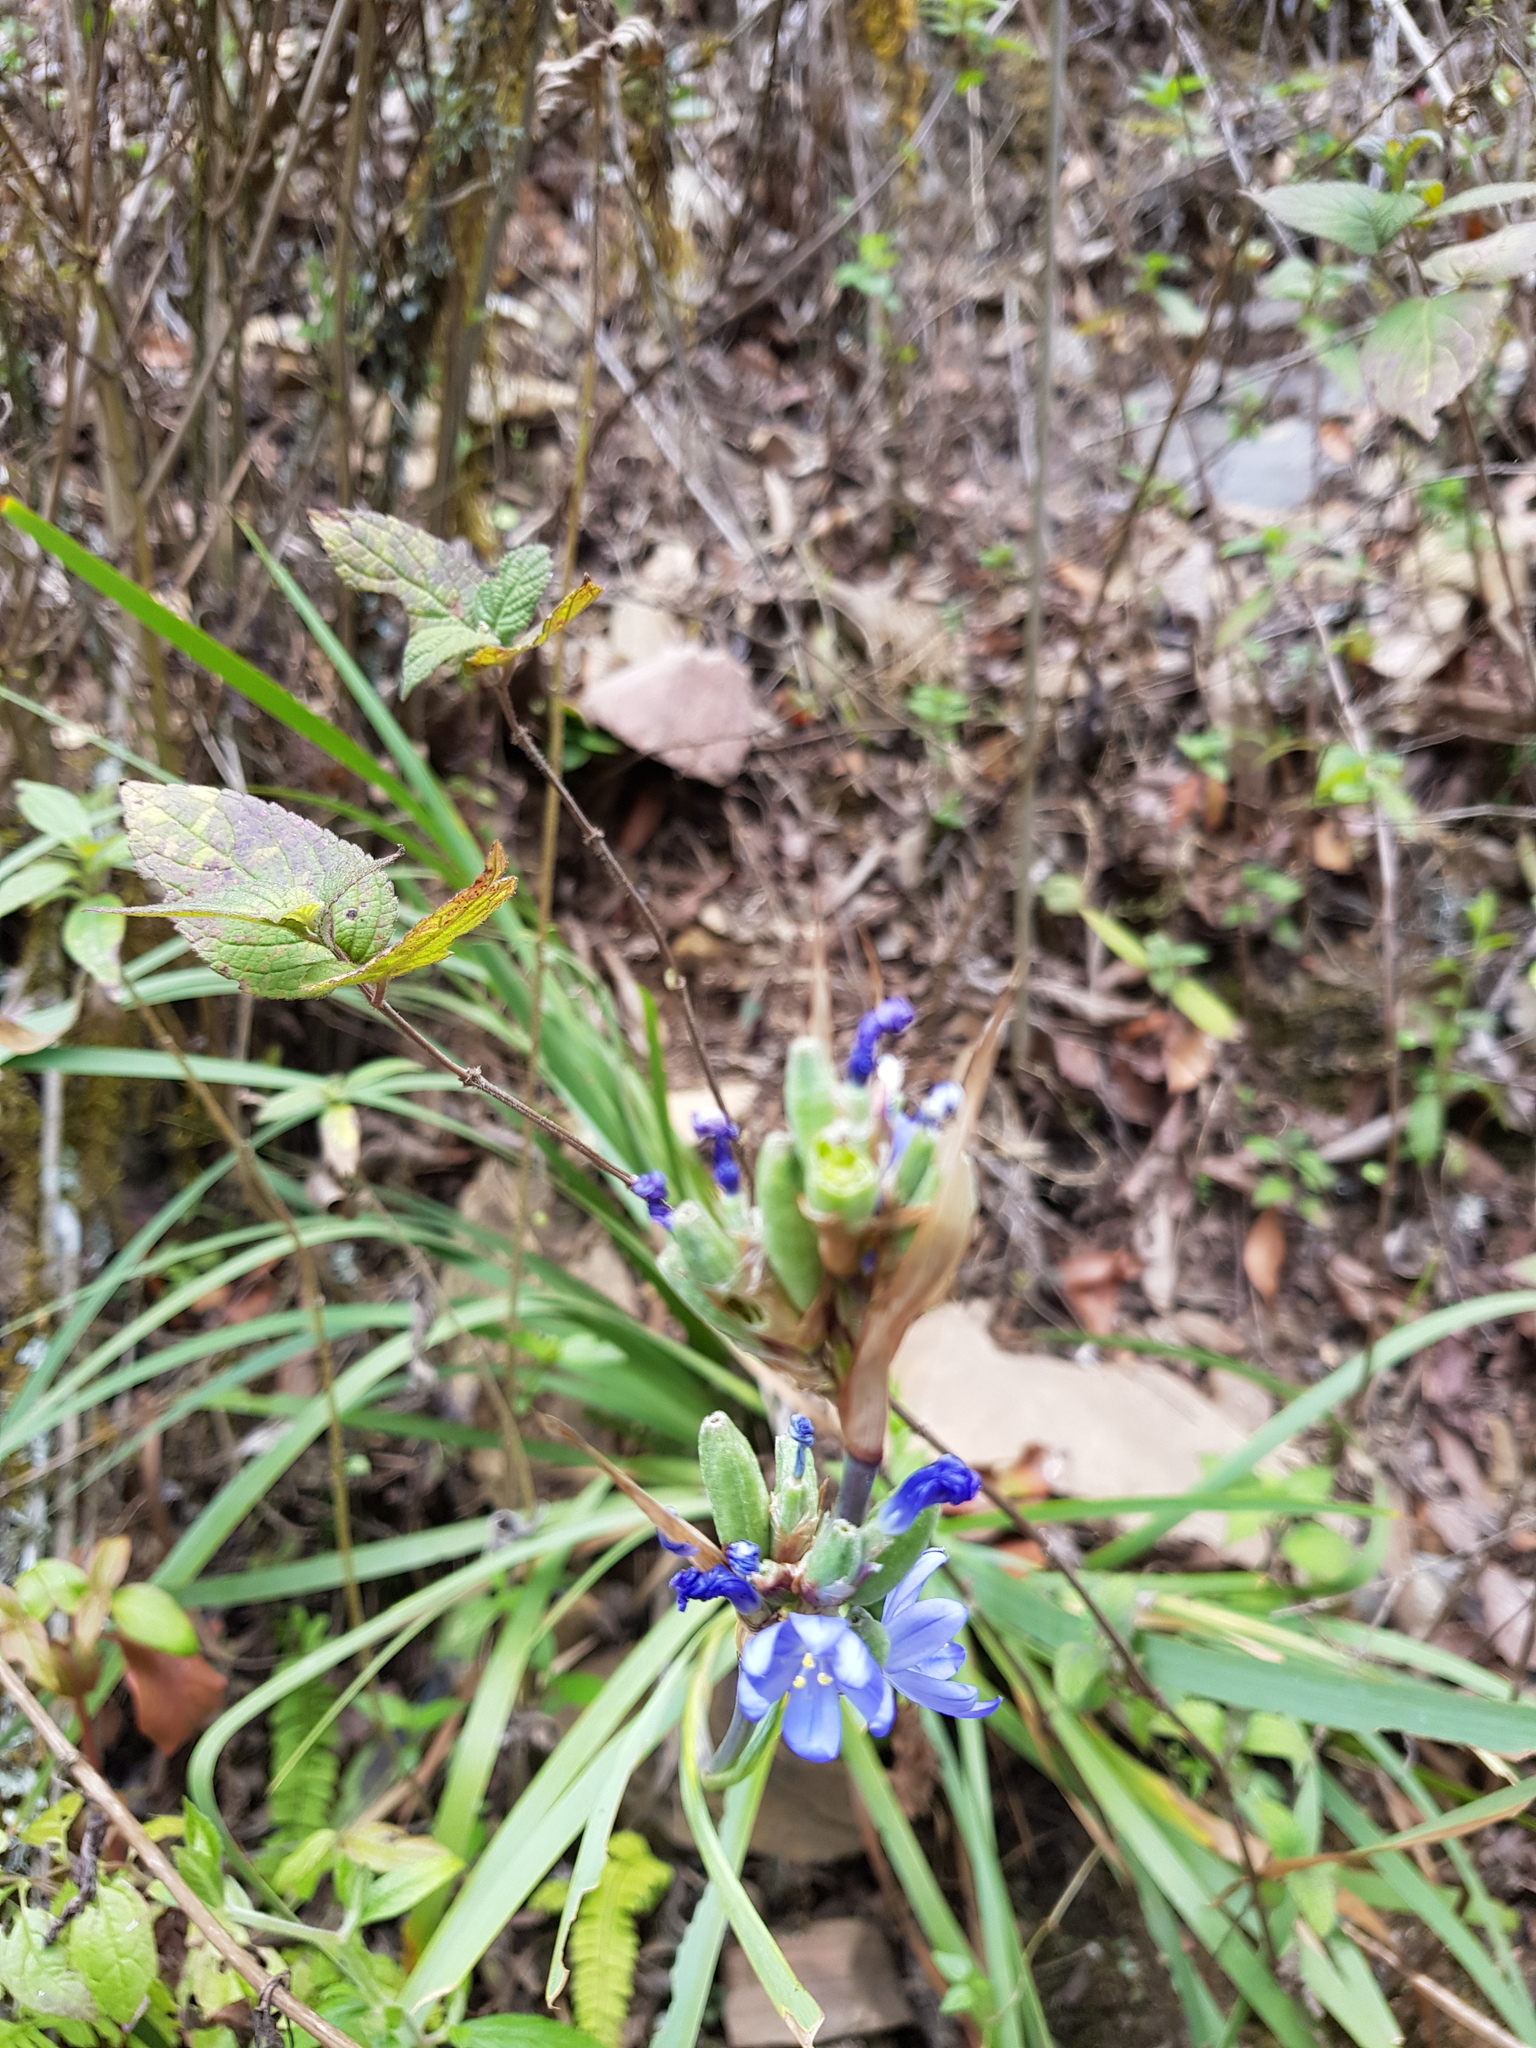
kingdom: Plantae
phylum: Tracheophyta
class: Liliopsida
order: Asparagales
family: Iridaceae
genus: Orthrosanthus
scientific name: Orthrosanthus monadelphus
